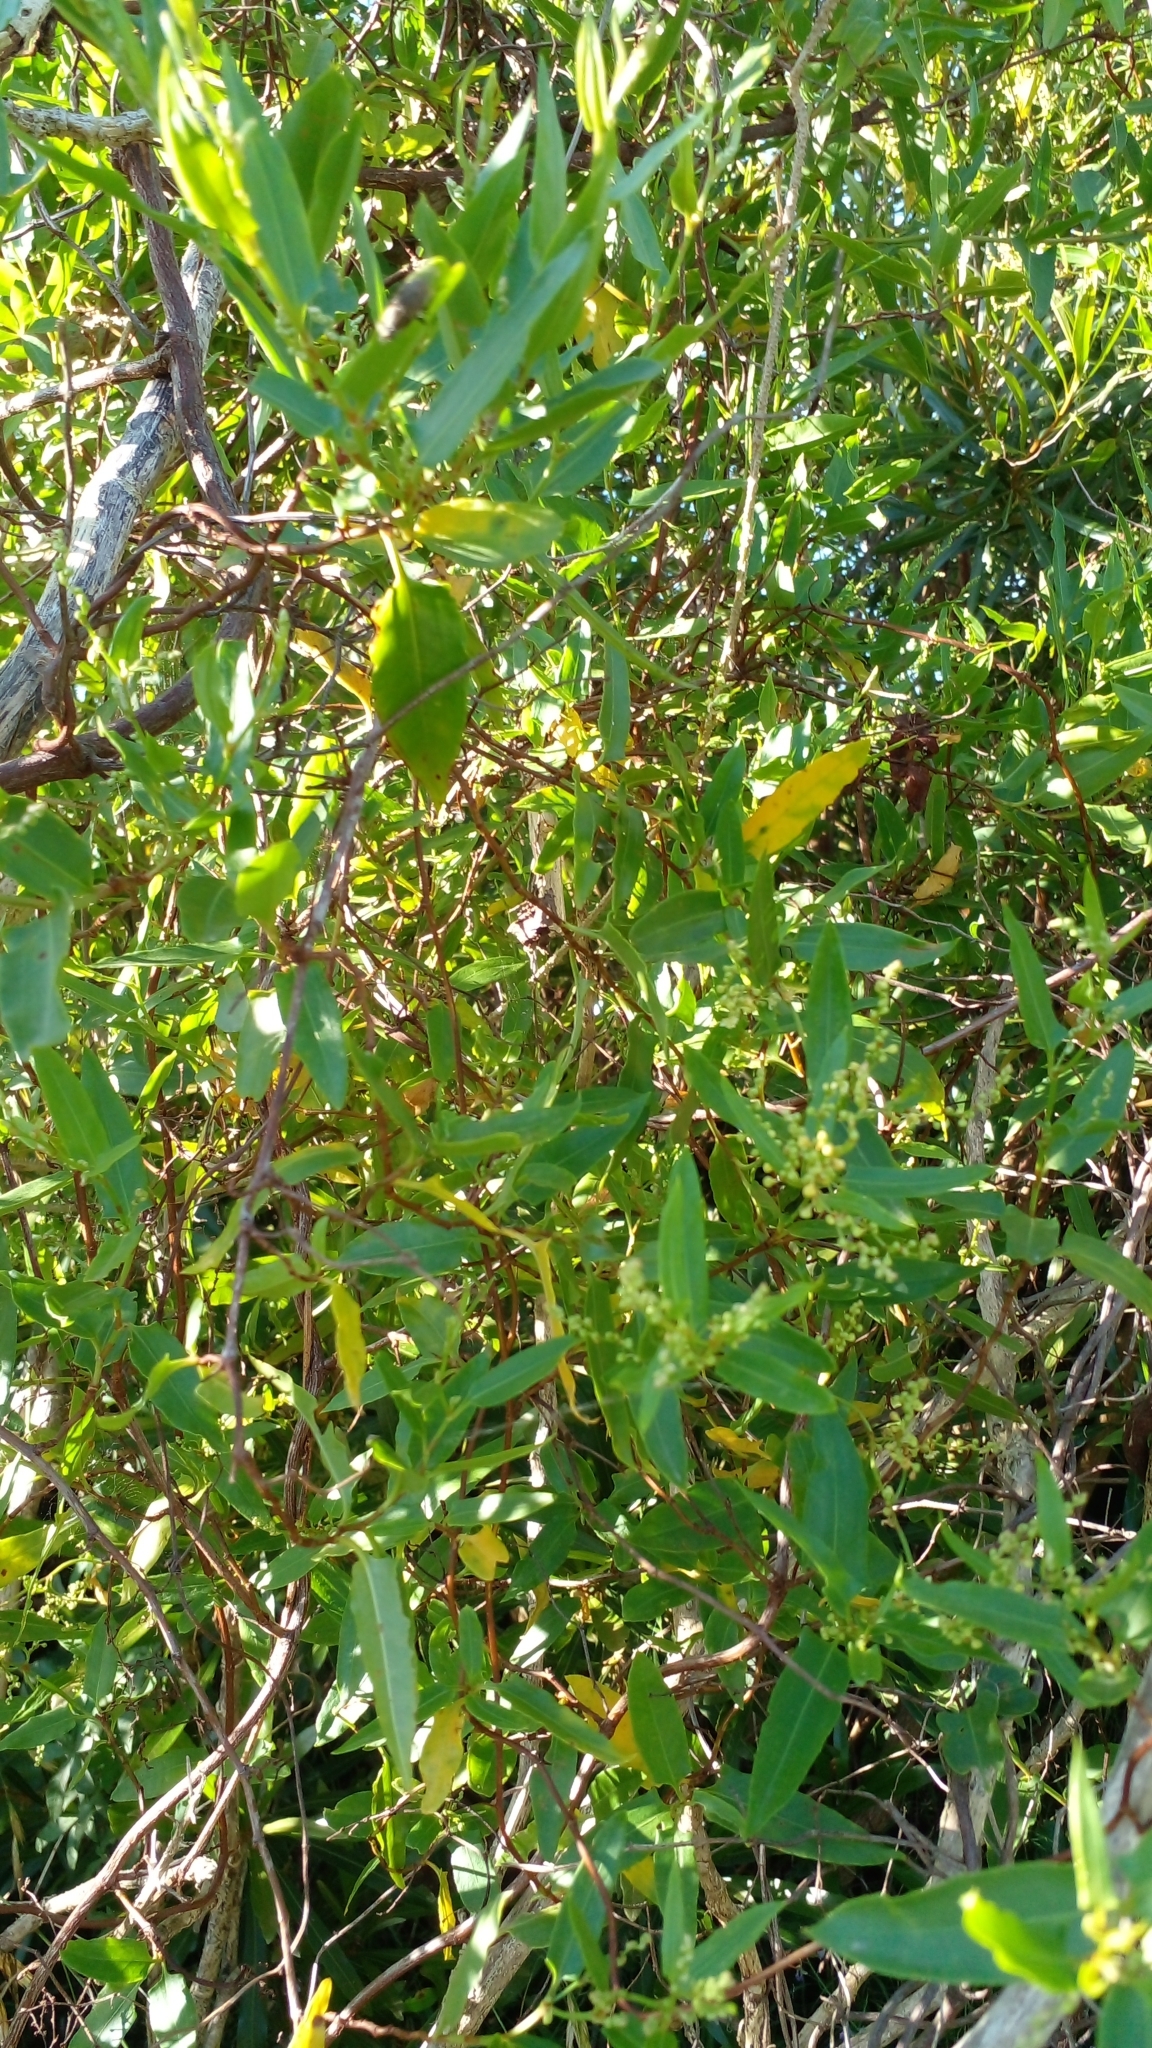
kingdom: Plantae
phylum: Tracheophyta
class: Magnoliopsida
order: Caryophyllales
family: Polygonaceae
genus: Muehlenbeckia
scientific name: Muehlenbeckia sagittifolia
